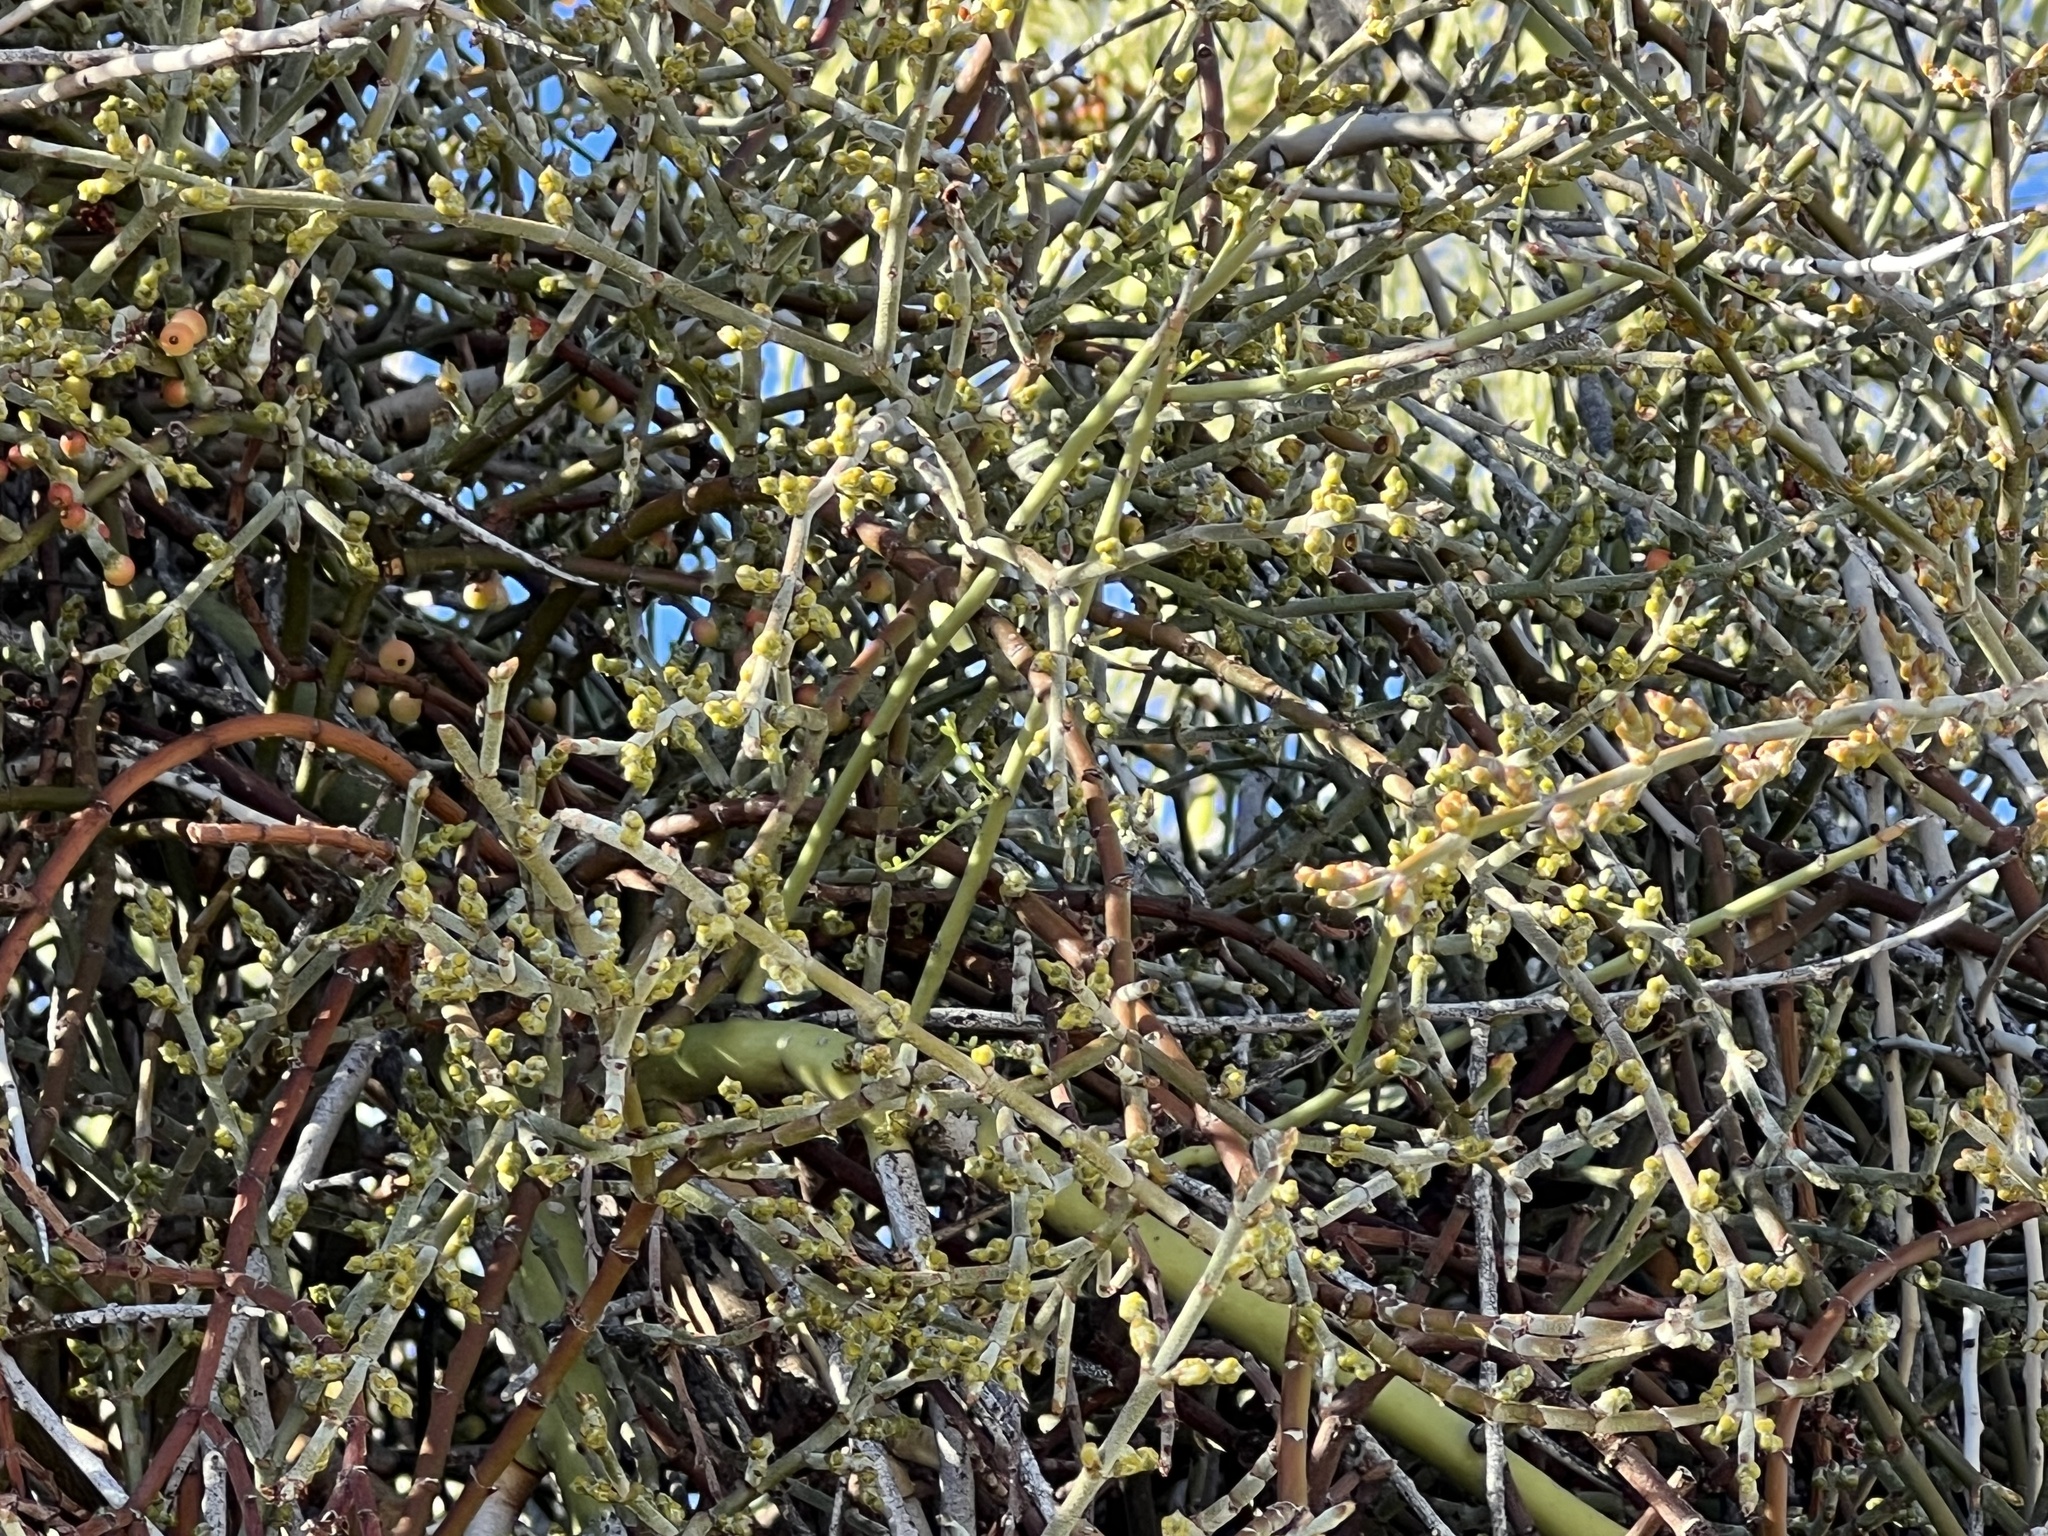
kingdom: Plantae
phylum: Tracheophyta
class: Magnoliopsida
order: Santalales
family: Viscaceae
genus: Phoradendron
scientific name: Phoradendron californicum
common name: Acacia mistletoe
